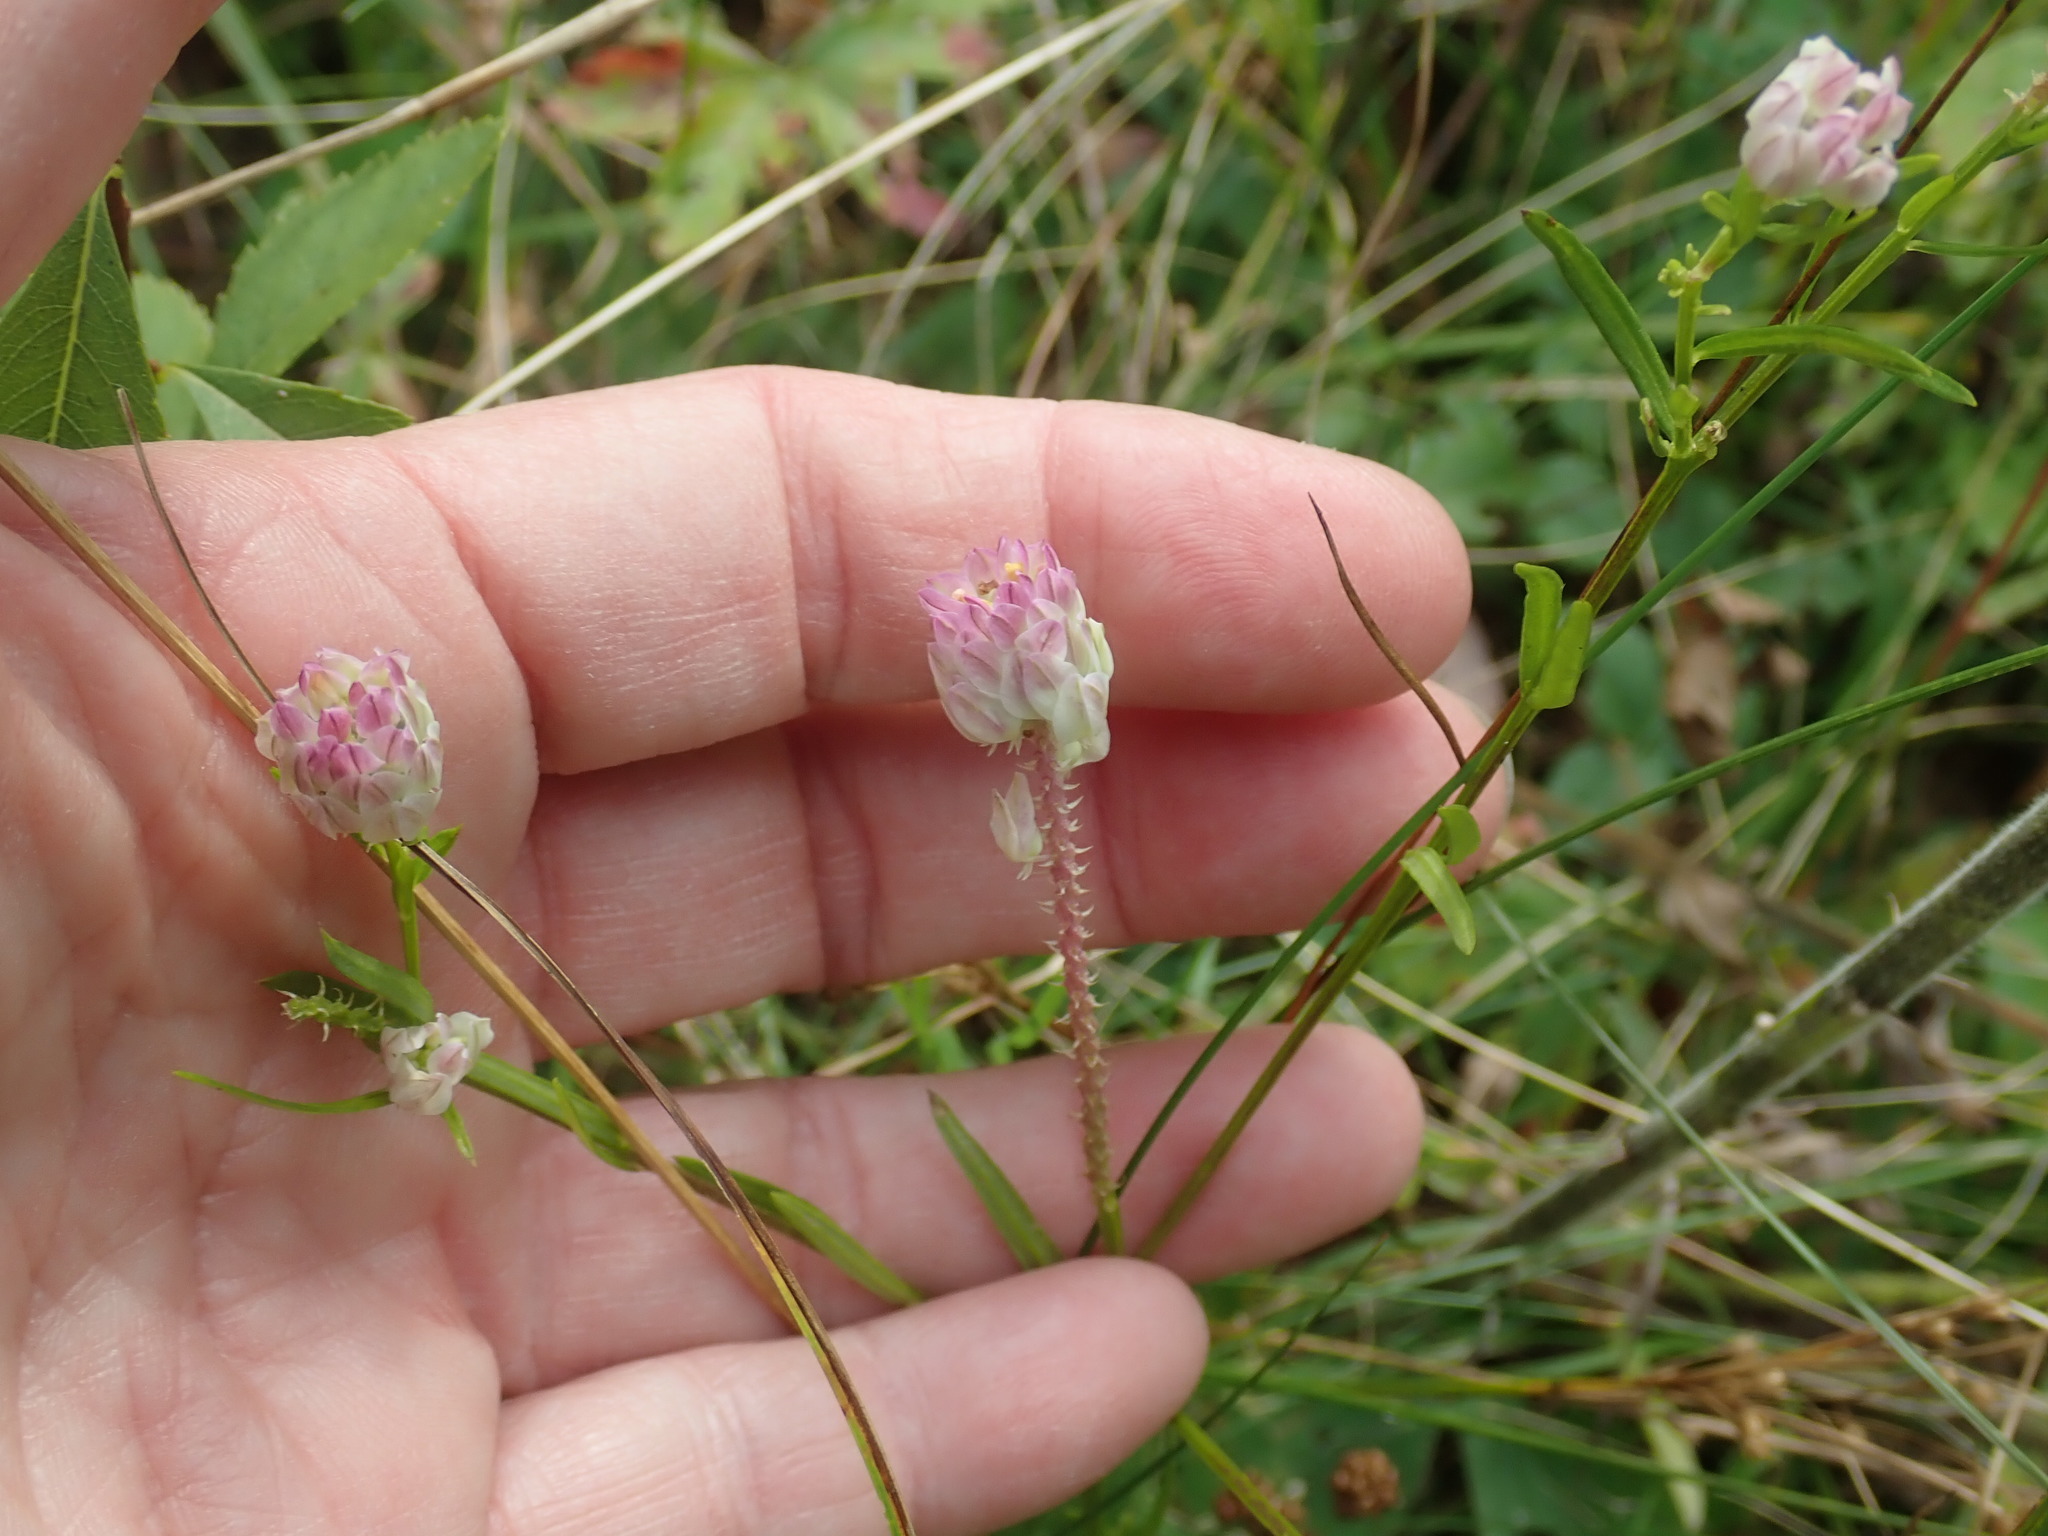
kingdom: Plantae
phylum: Tracheophyta
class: Magnoliopsida
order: Fabales
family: Polygalaceae
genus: Polygala
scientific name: Polygala sanguinea
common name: Blood milkwort
